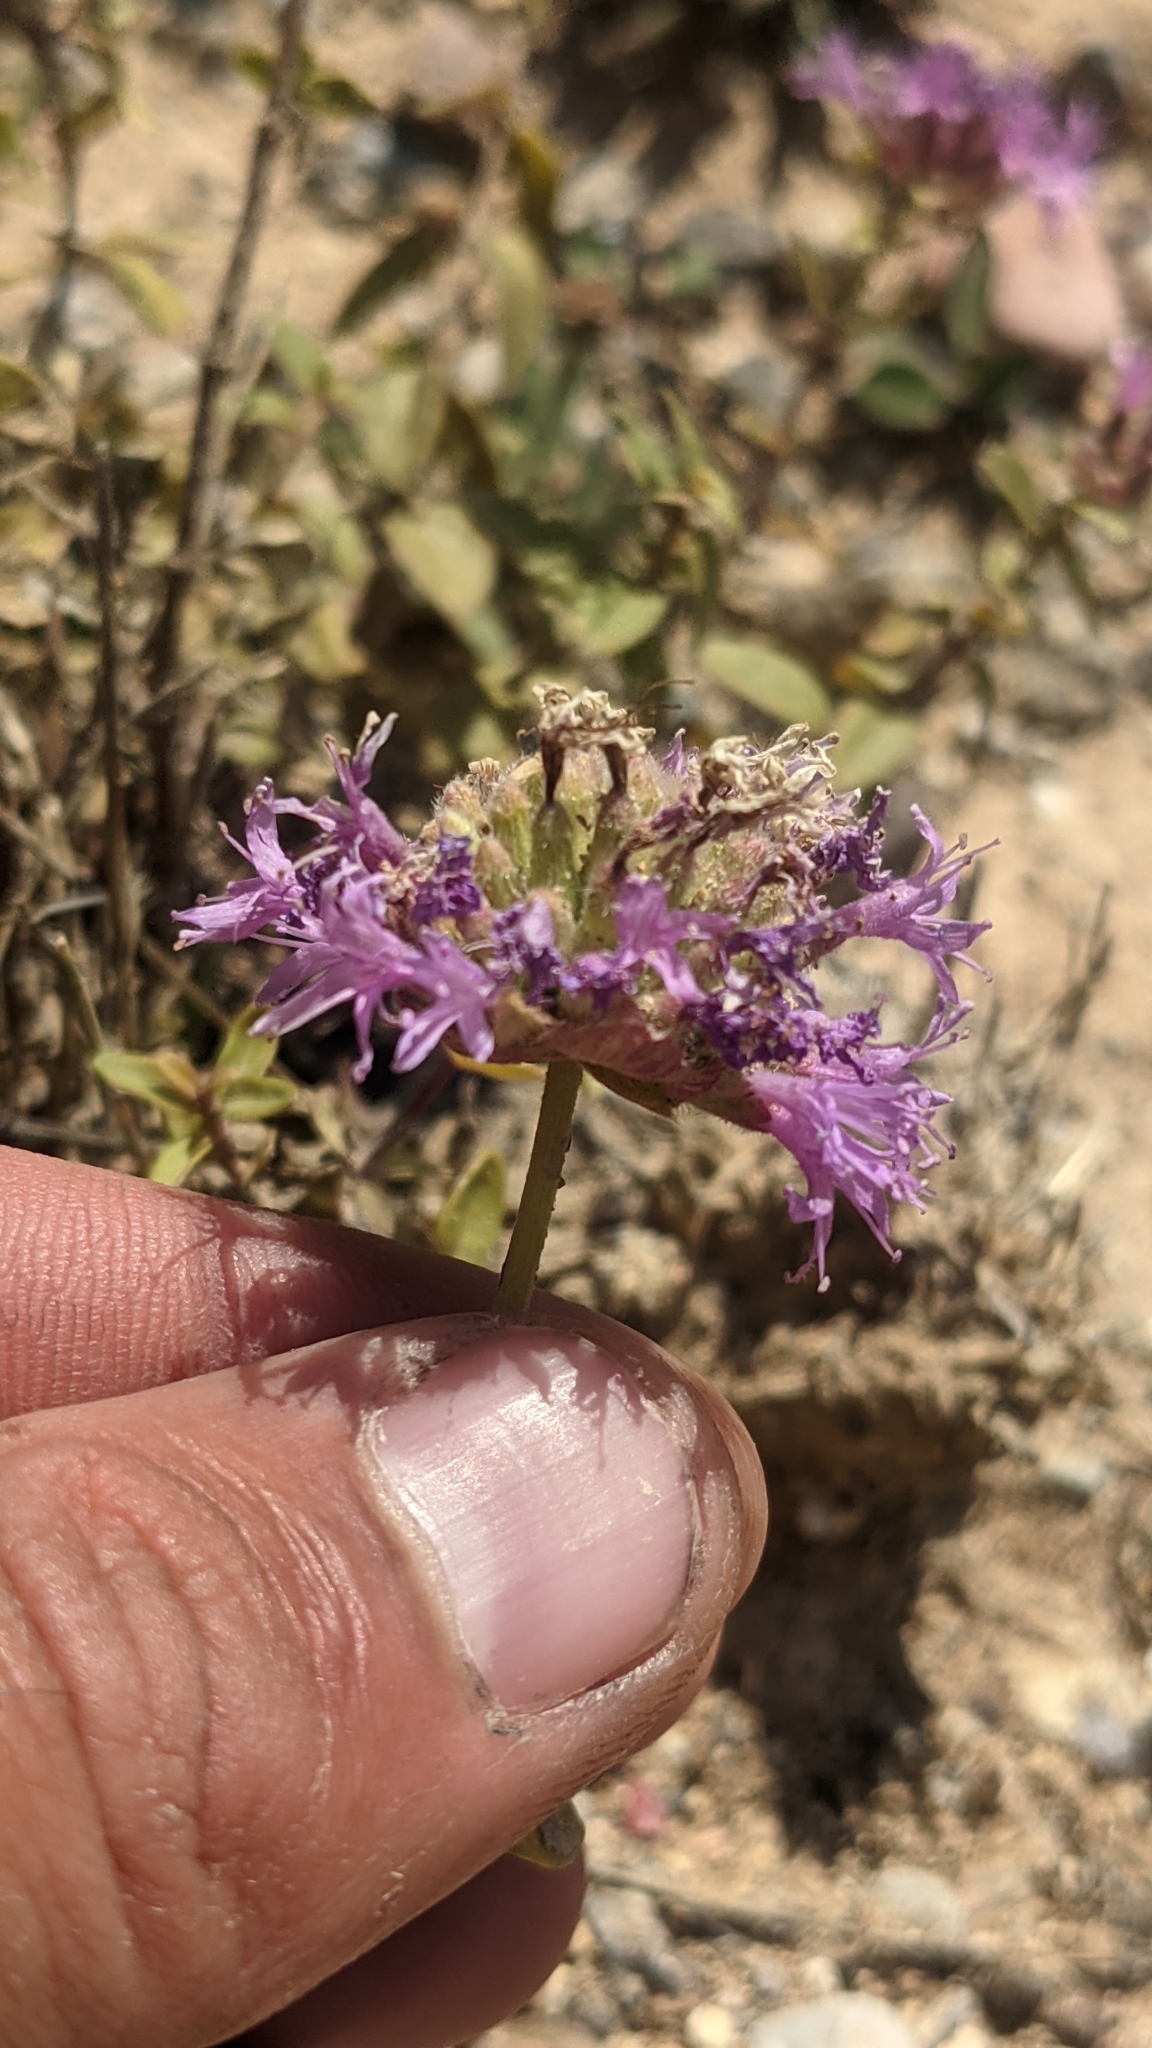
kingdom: Plantae
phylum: Tracheophyta
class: Magnoliopsida
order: Lamiales
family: Lamiaceae
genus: Monardella
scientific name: Monardella odoratissima
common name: Pacific monardella
